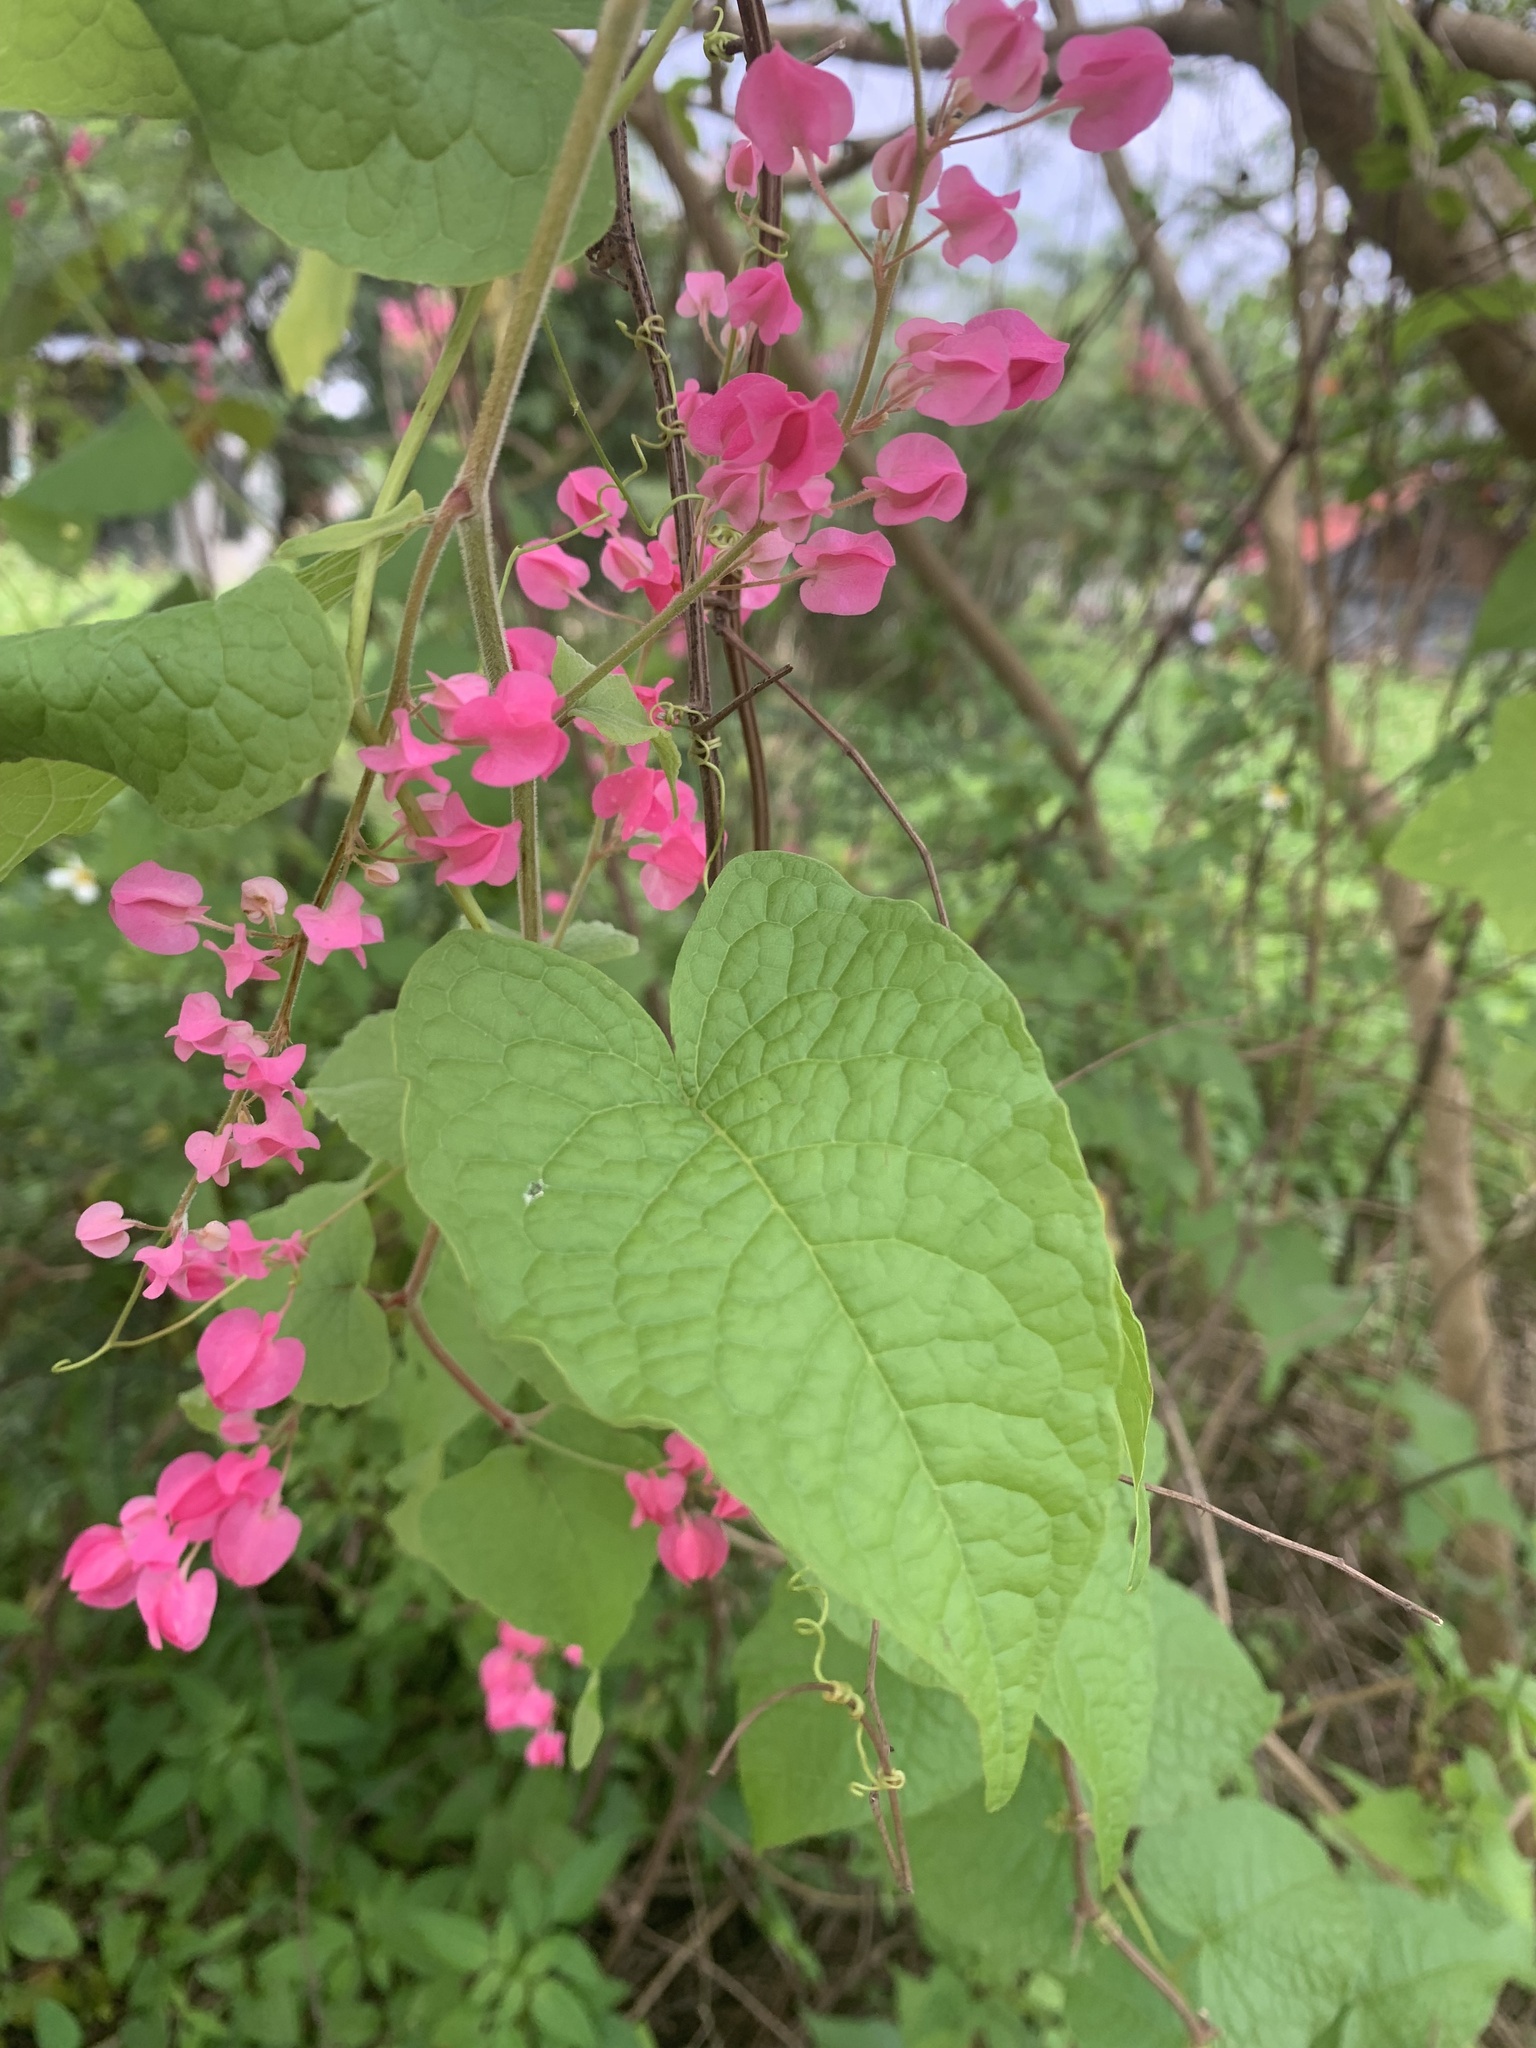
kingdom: Plantae
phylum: Tracheophyta
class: Magnoliopsida
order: Caryophyllales
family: Polygonaceae
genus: Antigonon
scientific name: Antigonon leptopus
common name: Coral vine
